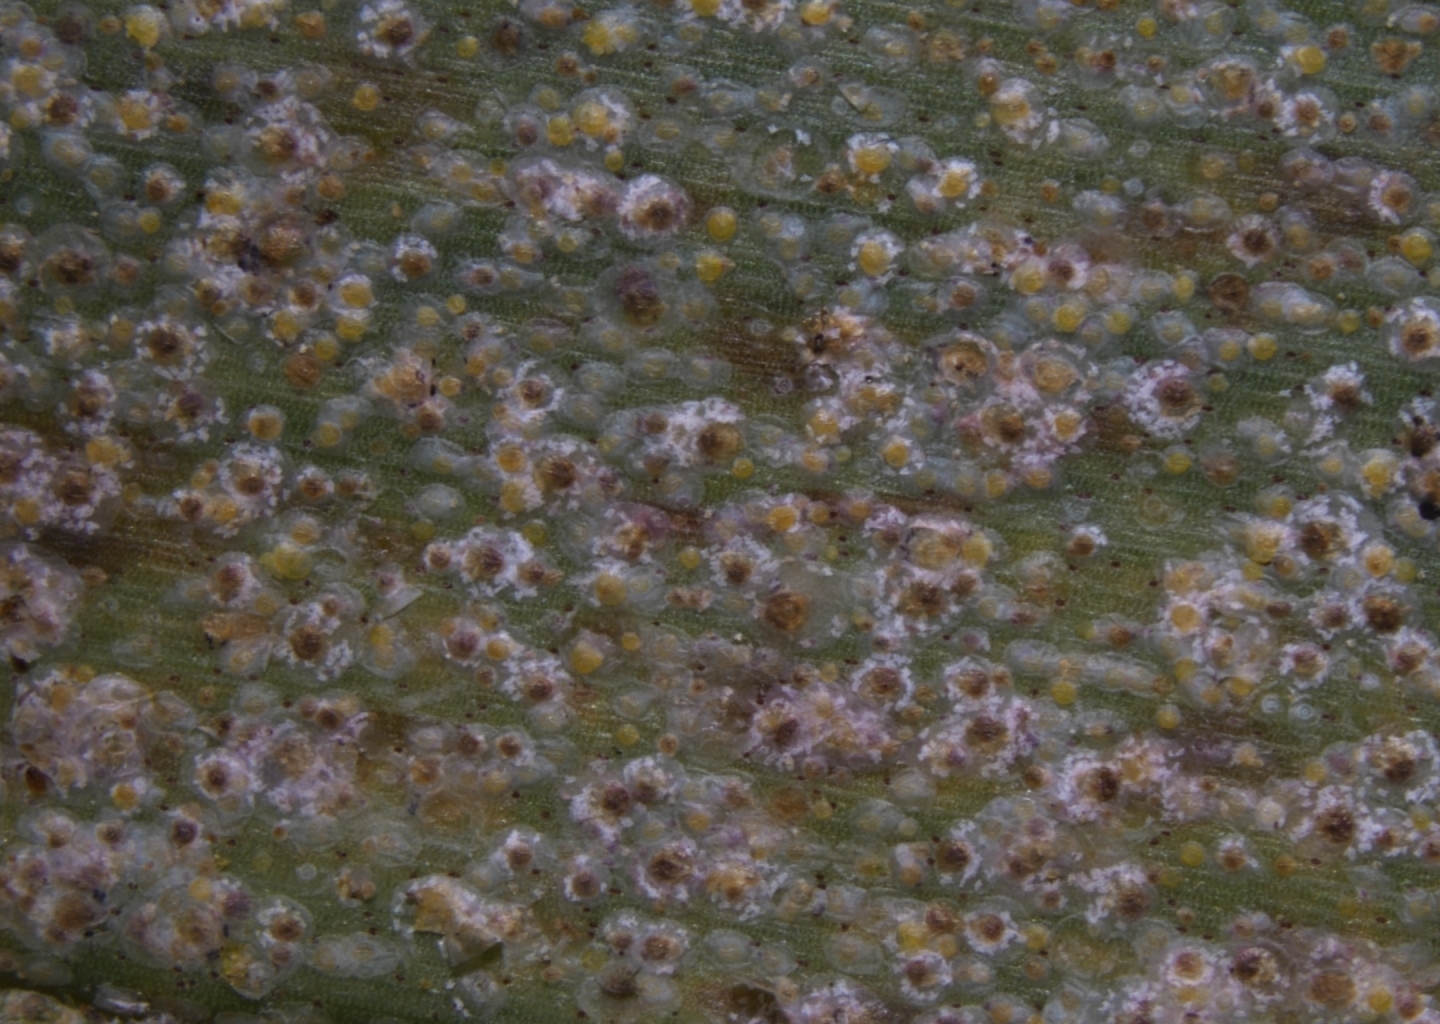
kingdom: Animalia
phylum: Arthropoda
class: Insecta
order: Hemiptera
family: Diaspididae
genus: Aspidiotus
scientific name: Aspidiotus destructor
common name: Coconut scale
